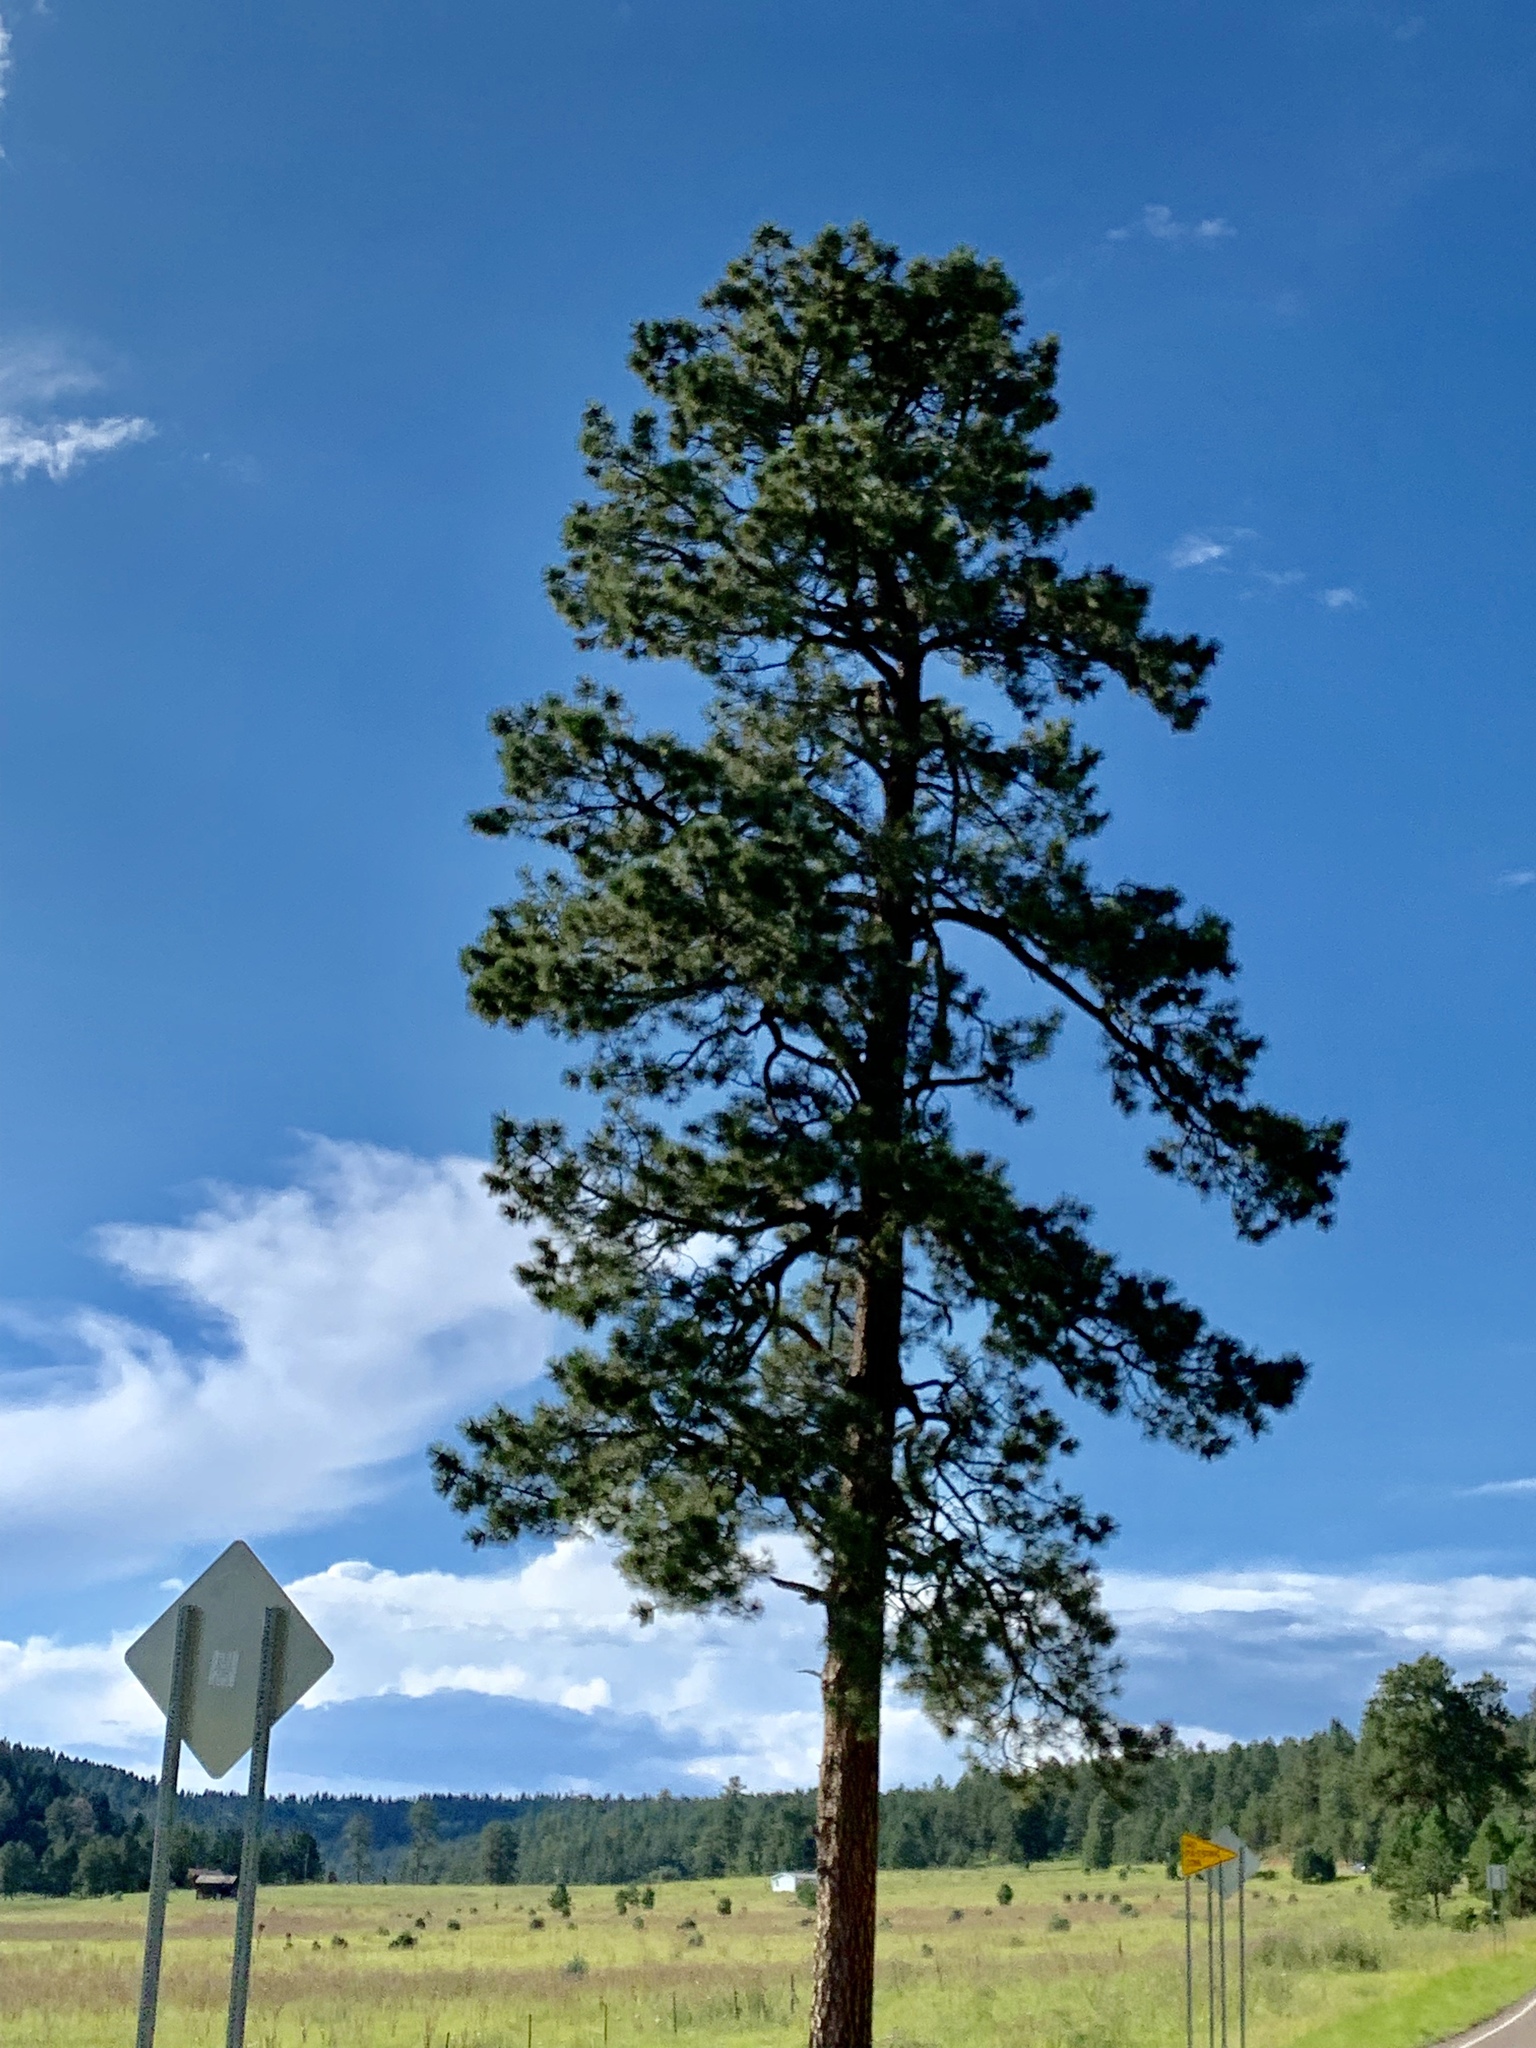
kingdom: Plantae
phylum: Tracheophyta
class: Pinopsida
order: Pinales
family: Pinaceae
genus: Pinus
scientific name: Pinus ponderosa
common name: Western yellow-pine
